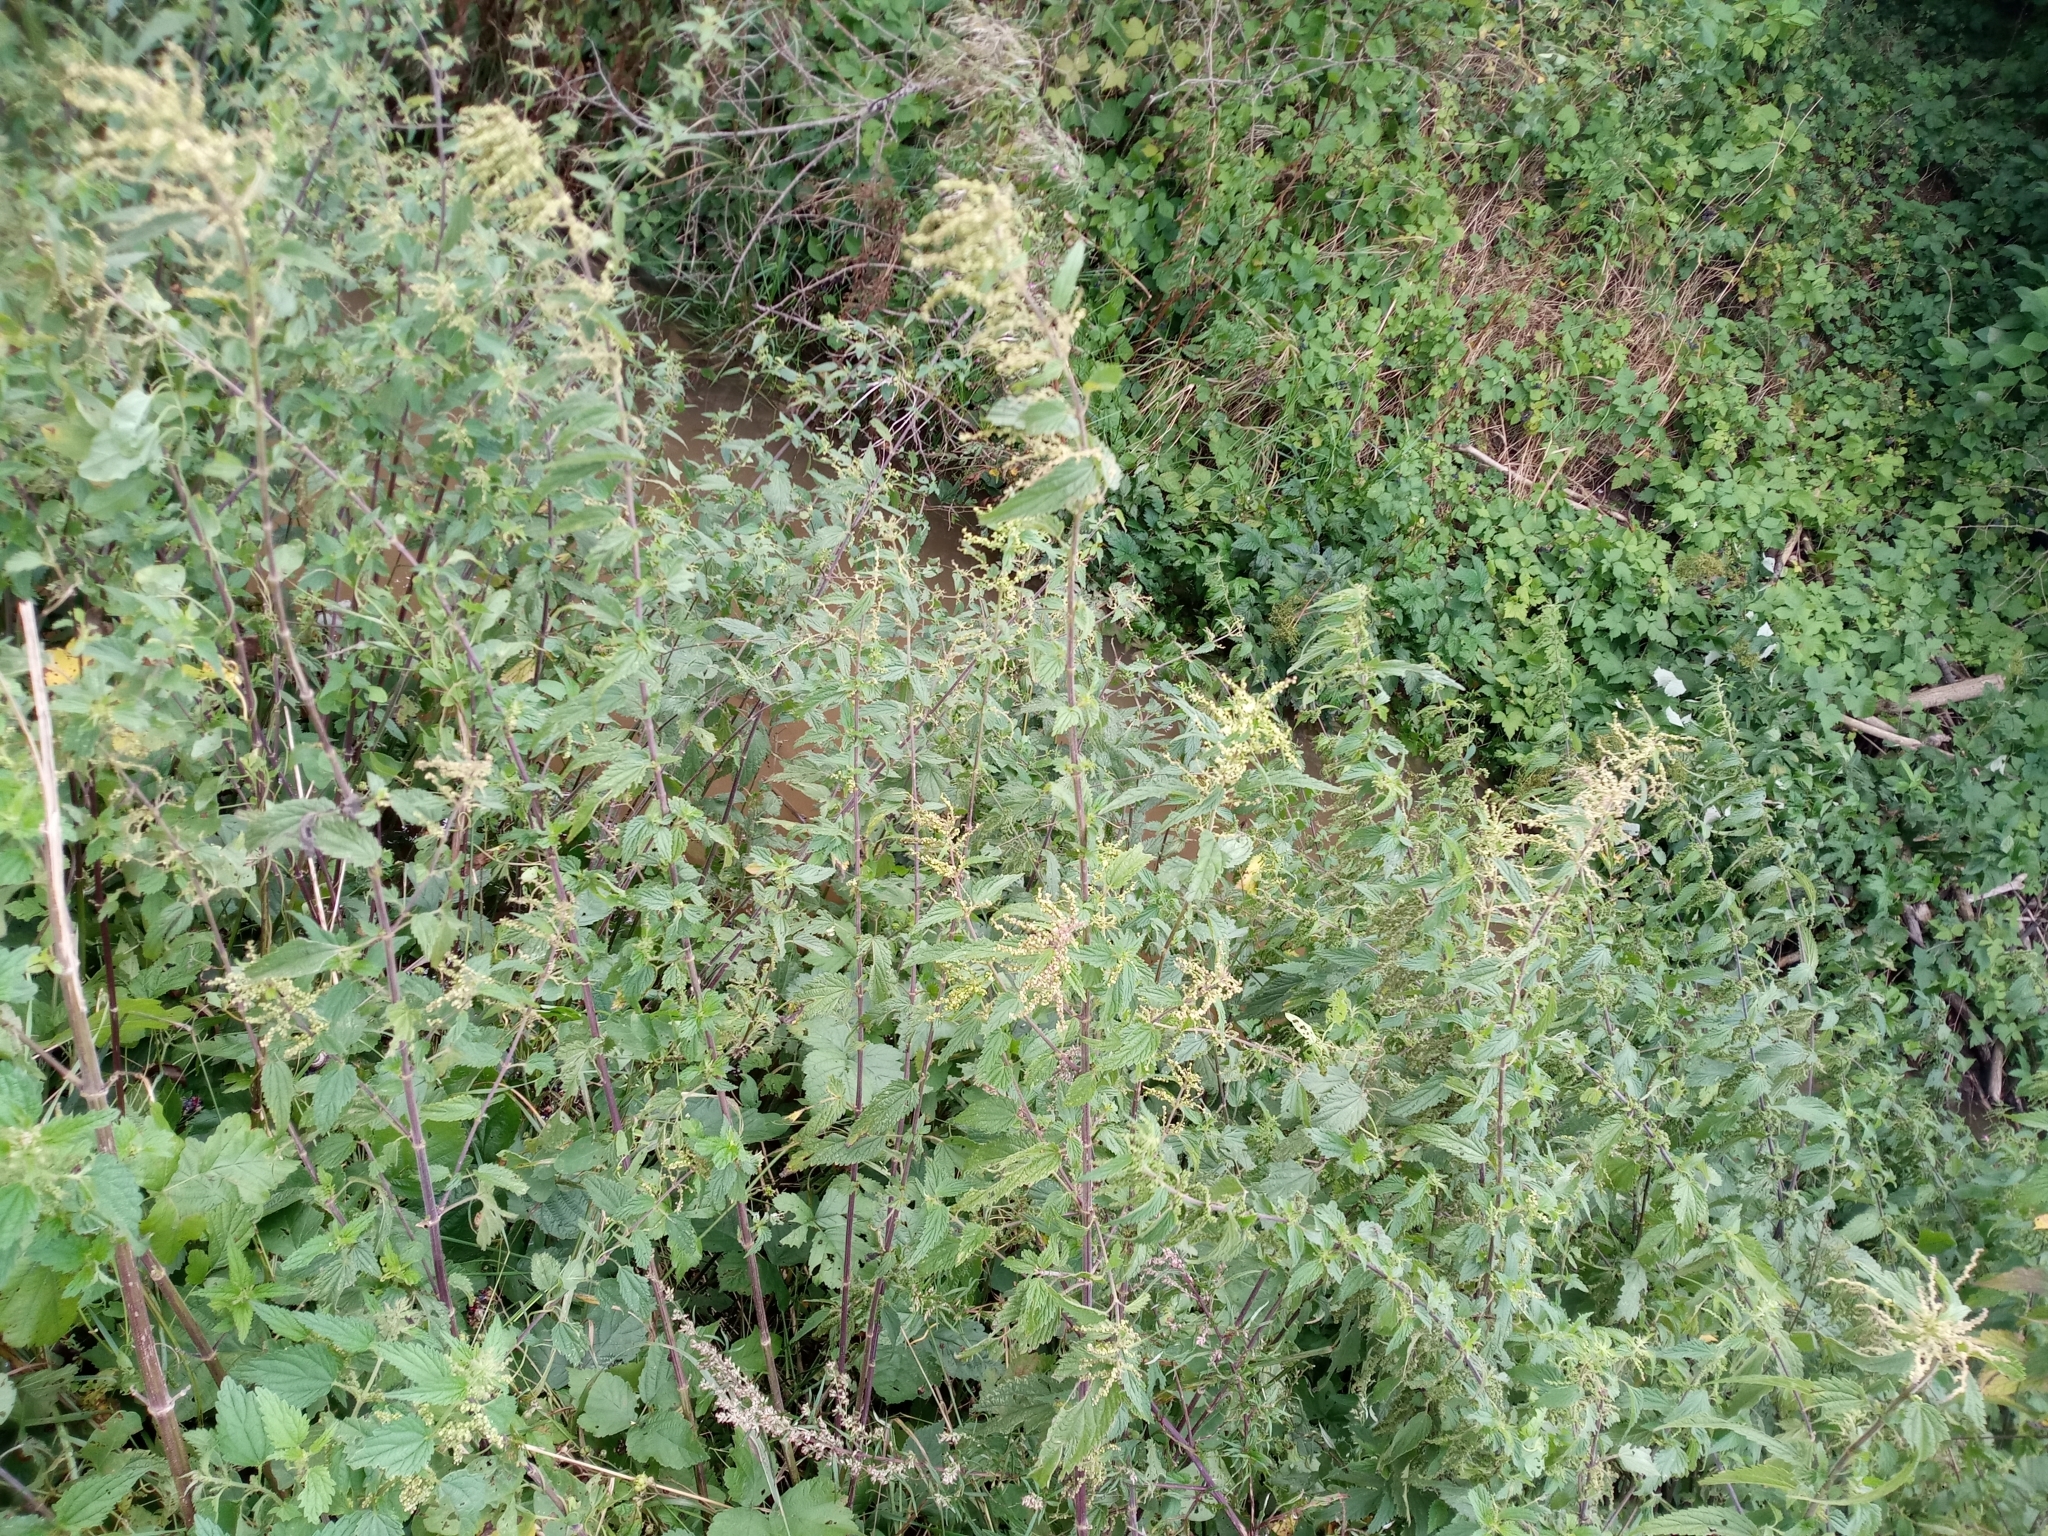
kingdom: Plantae
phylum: Tracheophyta
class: Magnoliopsida
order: Rosales
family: Urticaceae
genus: Urtica
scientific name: Urtica dioica
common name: Common nettle
